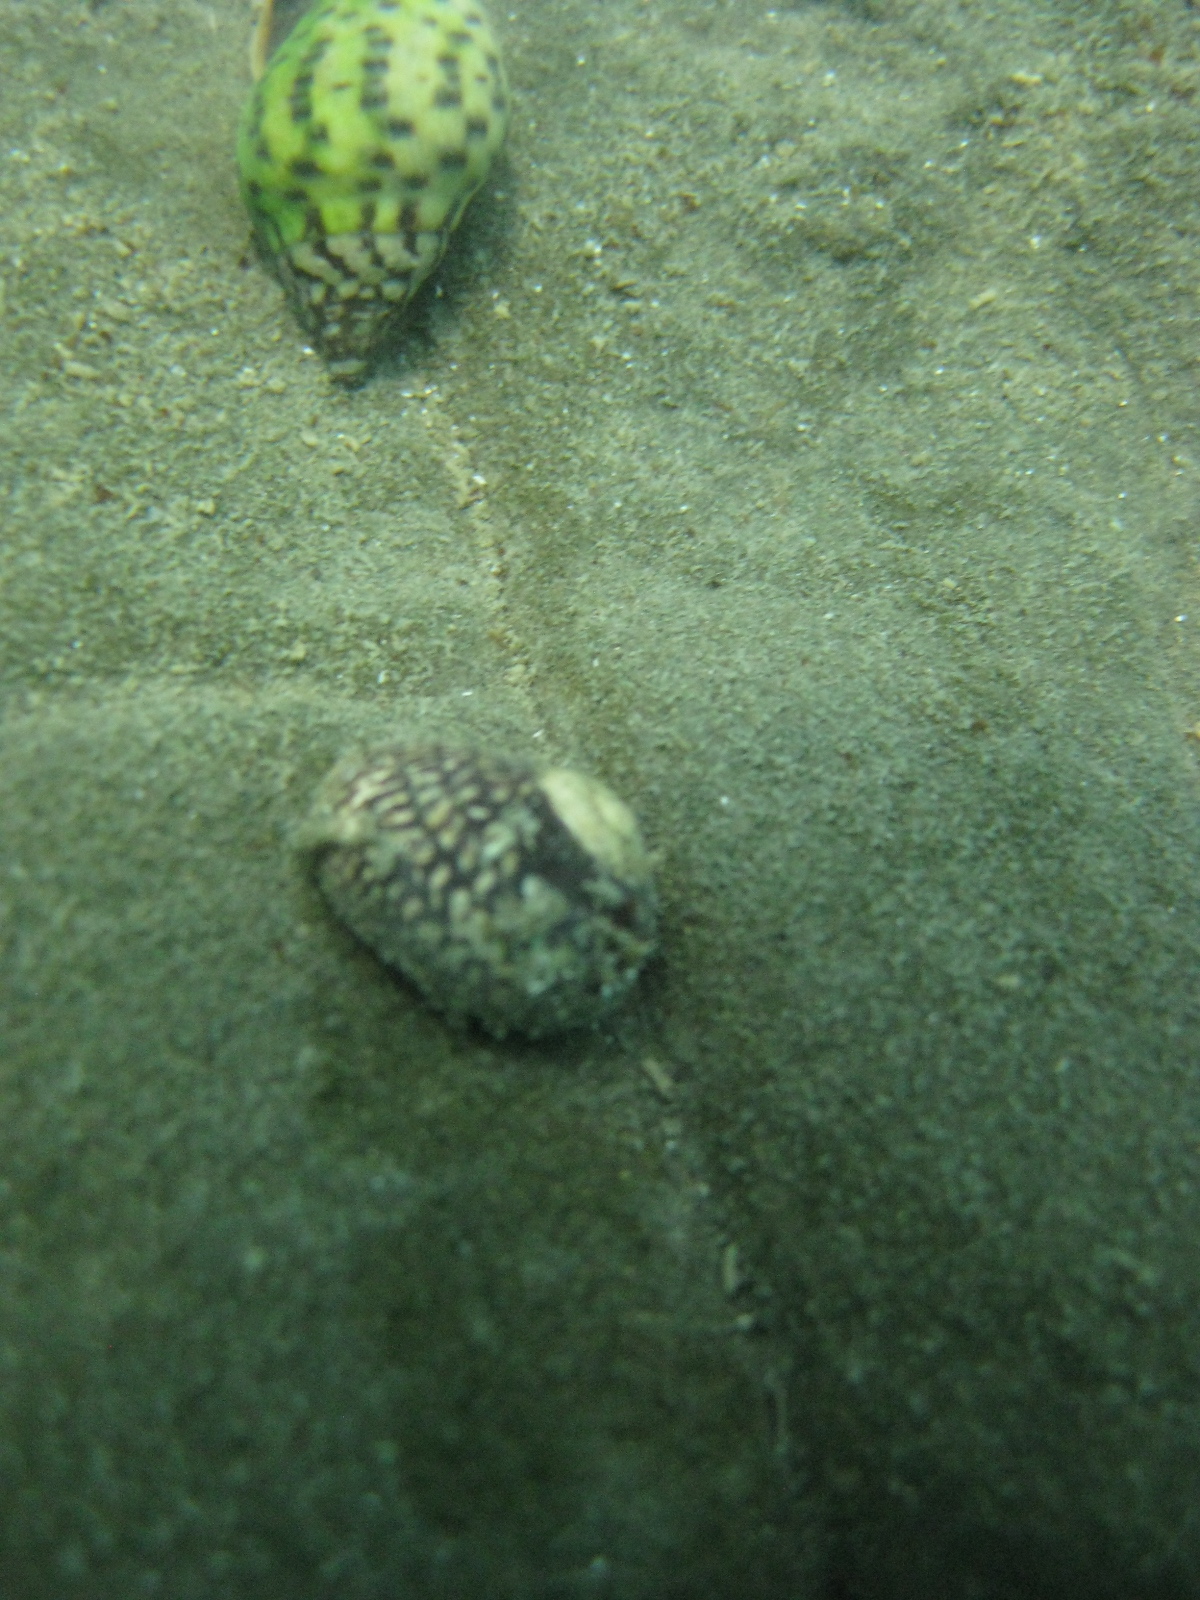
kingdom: Animalia
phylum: Mollusca
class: Gastropoda
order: Trochida
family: Trochidae
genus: Diloma
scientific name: Diloma aethiops
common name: Scorched monodont
